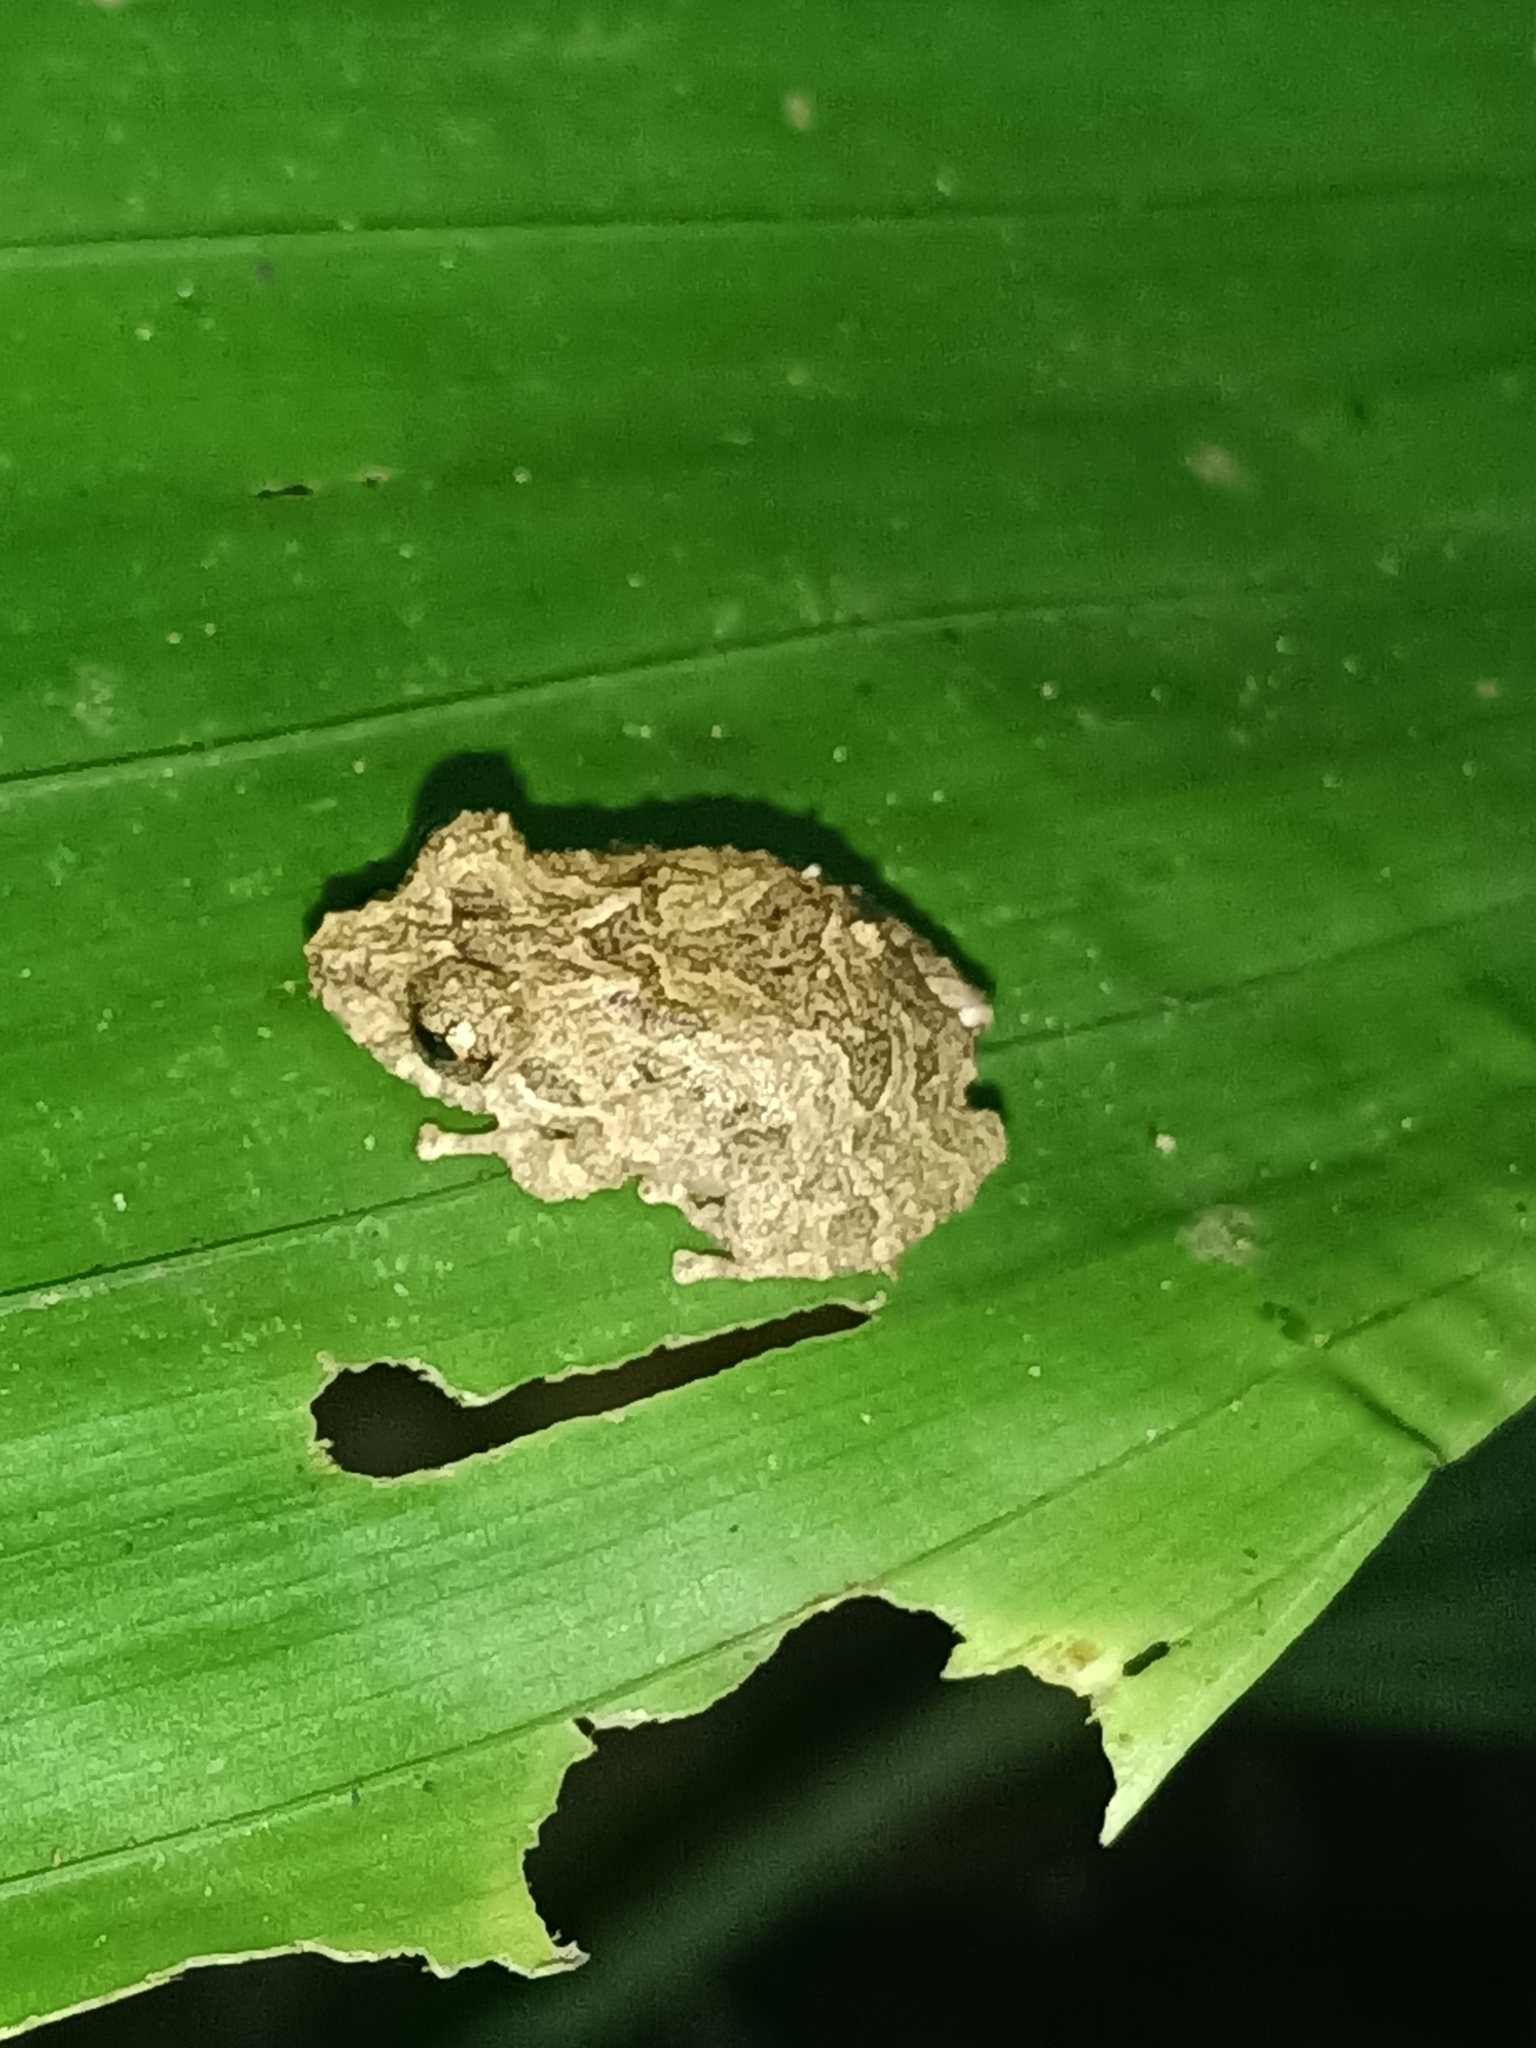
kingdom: Animalia
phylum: Chordata
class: Amphibia
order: Anura
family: Craugastoridae
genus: Pristimantis
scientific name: Pristimantis inguinalis
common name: New river south american rain frog
